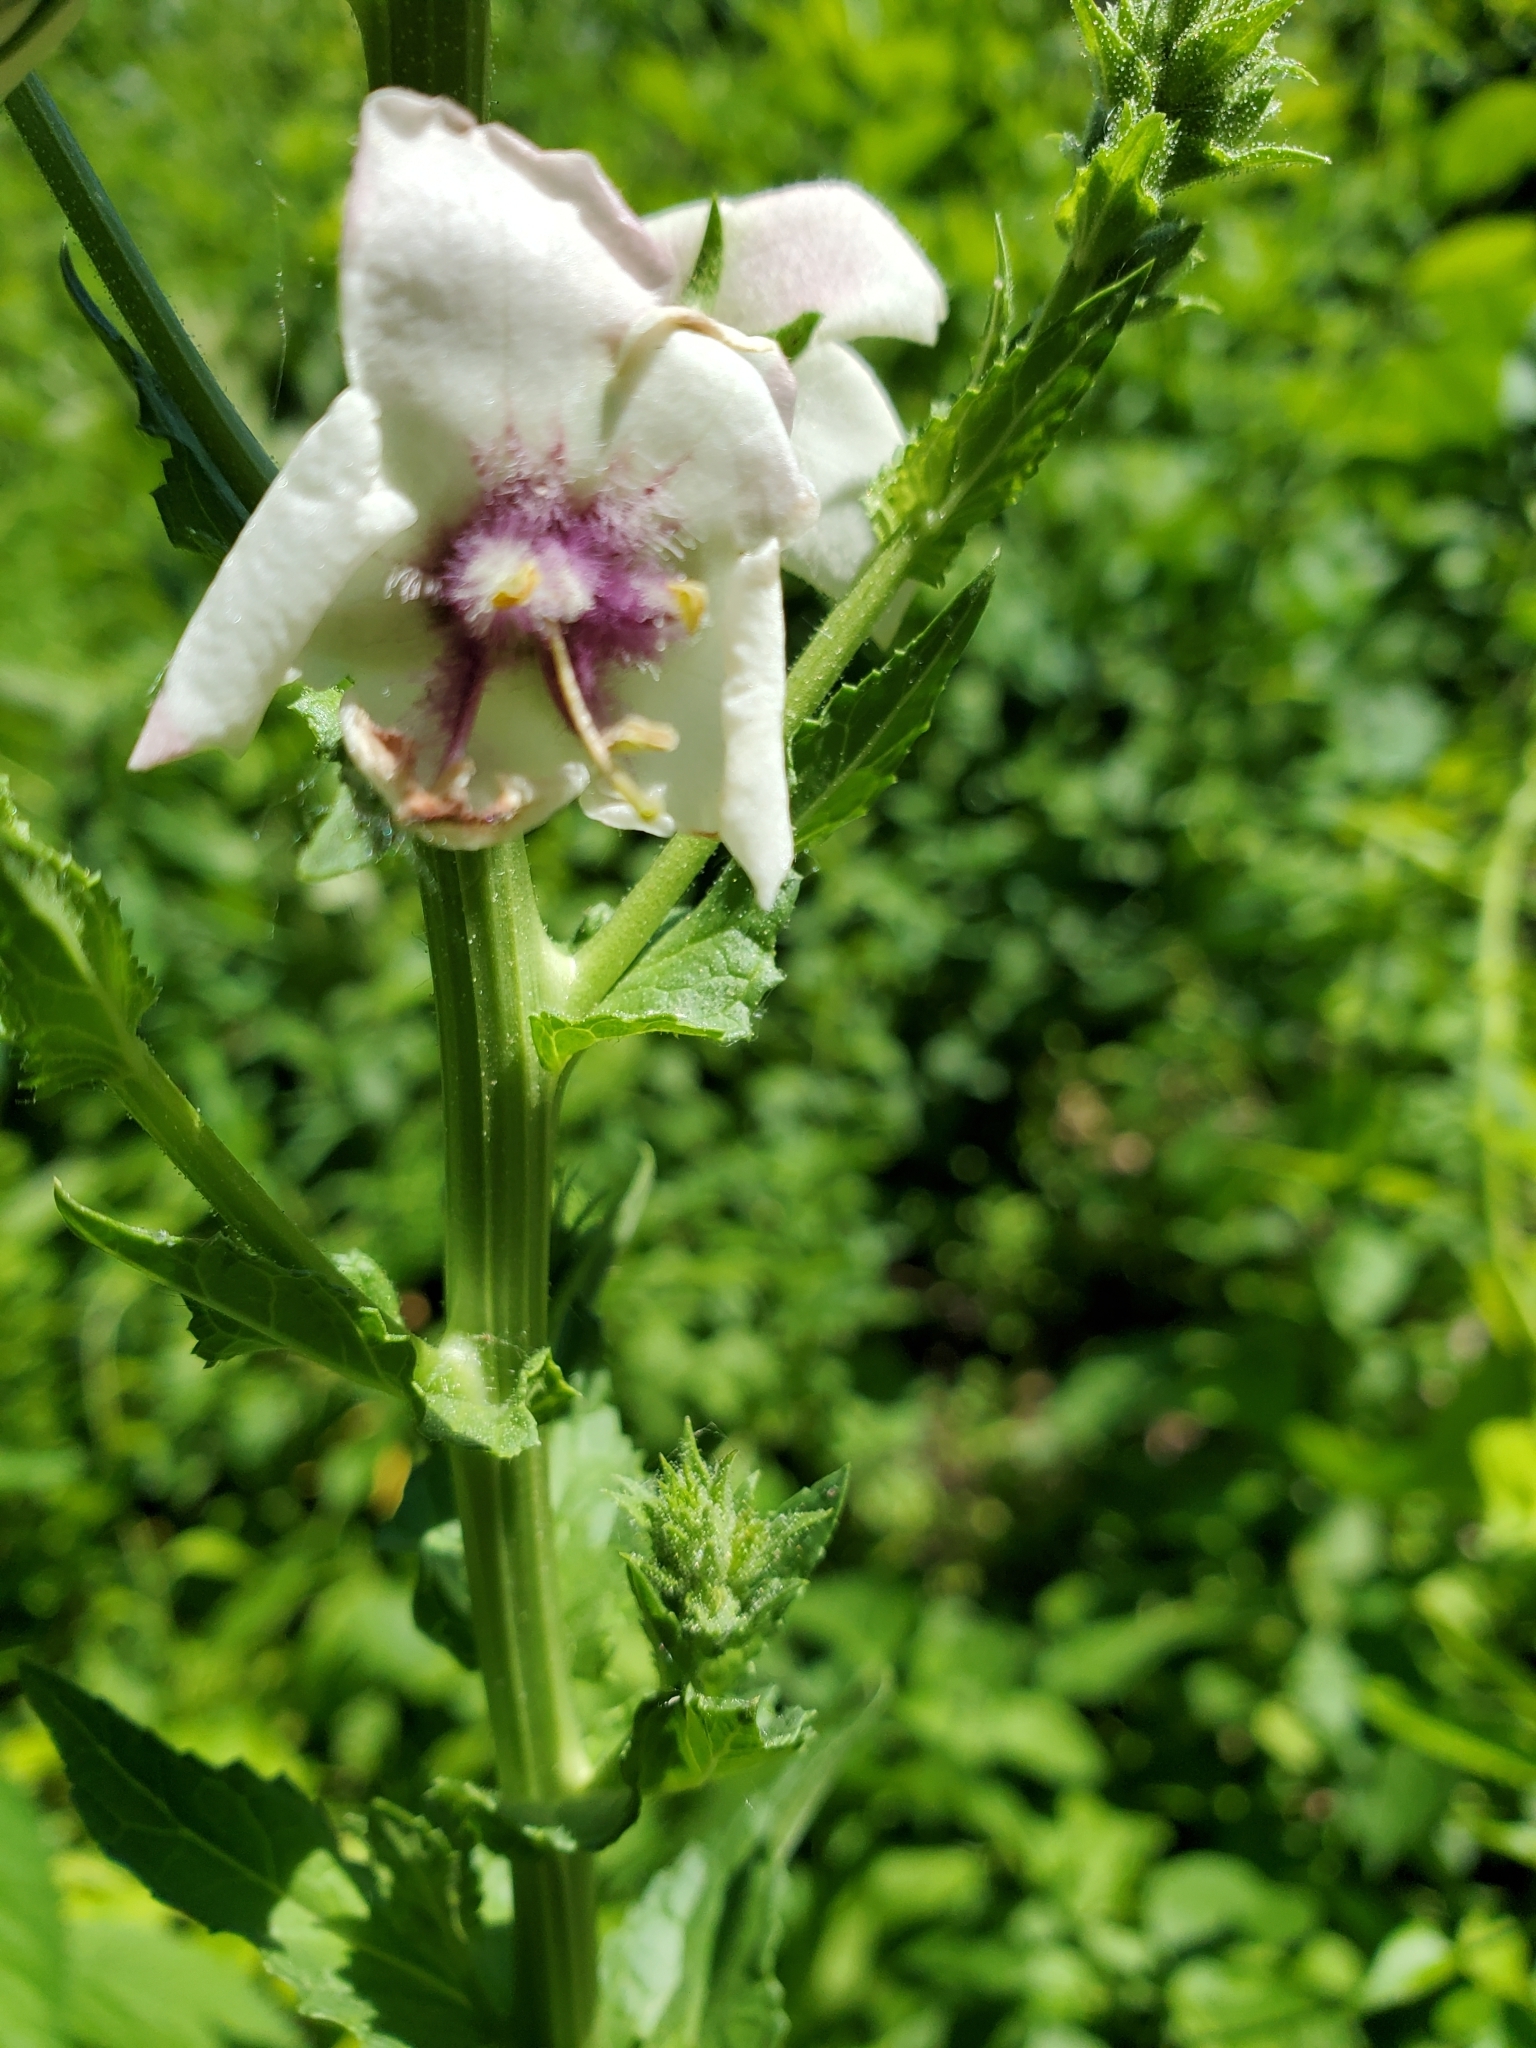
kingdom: Plantae
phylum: Tracheophyta
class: Magnoliopsida
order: Lamiales
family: Scrophulariaceae
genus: Verbascum
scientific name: Verbascum blattaria
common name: Moth mullein
